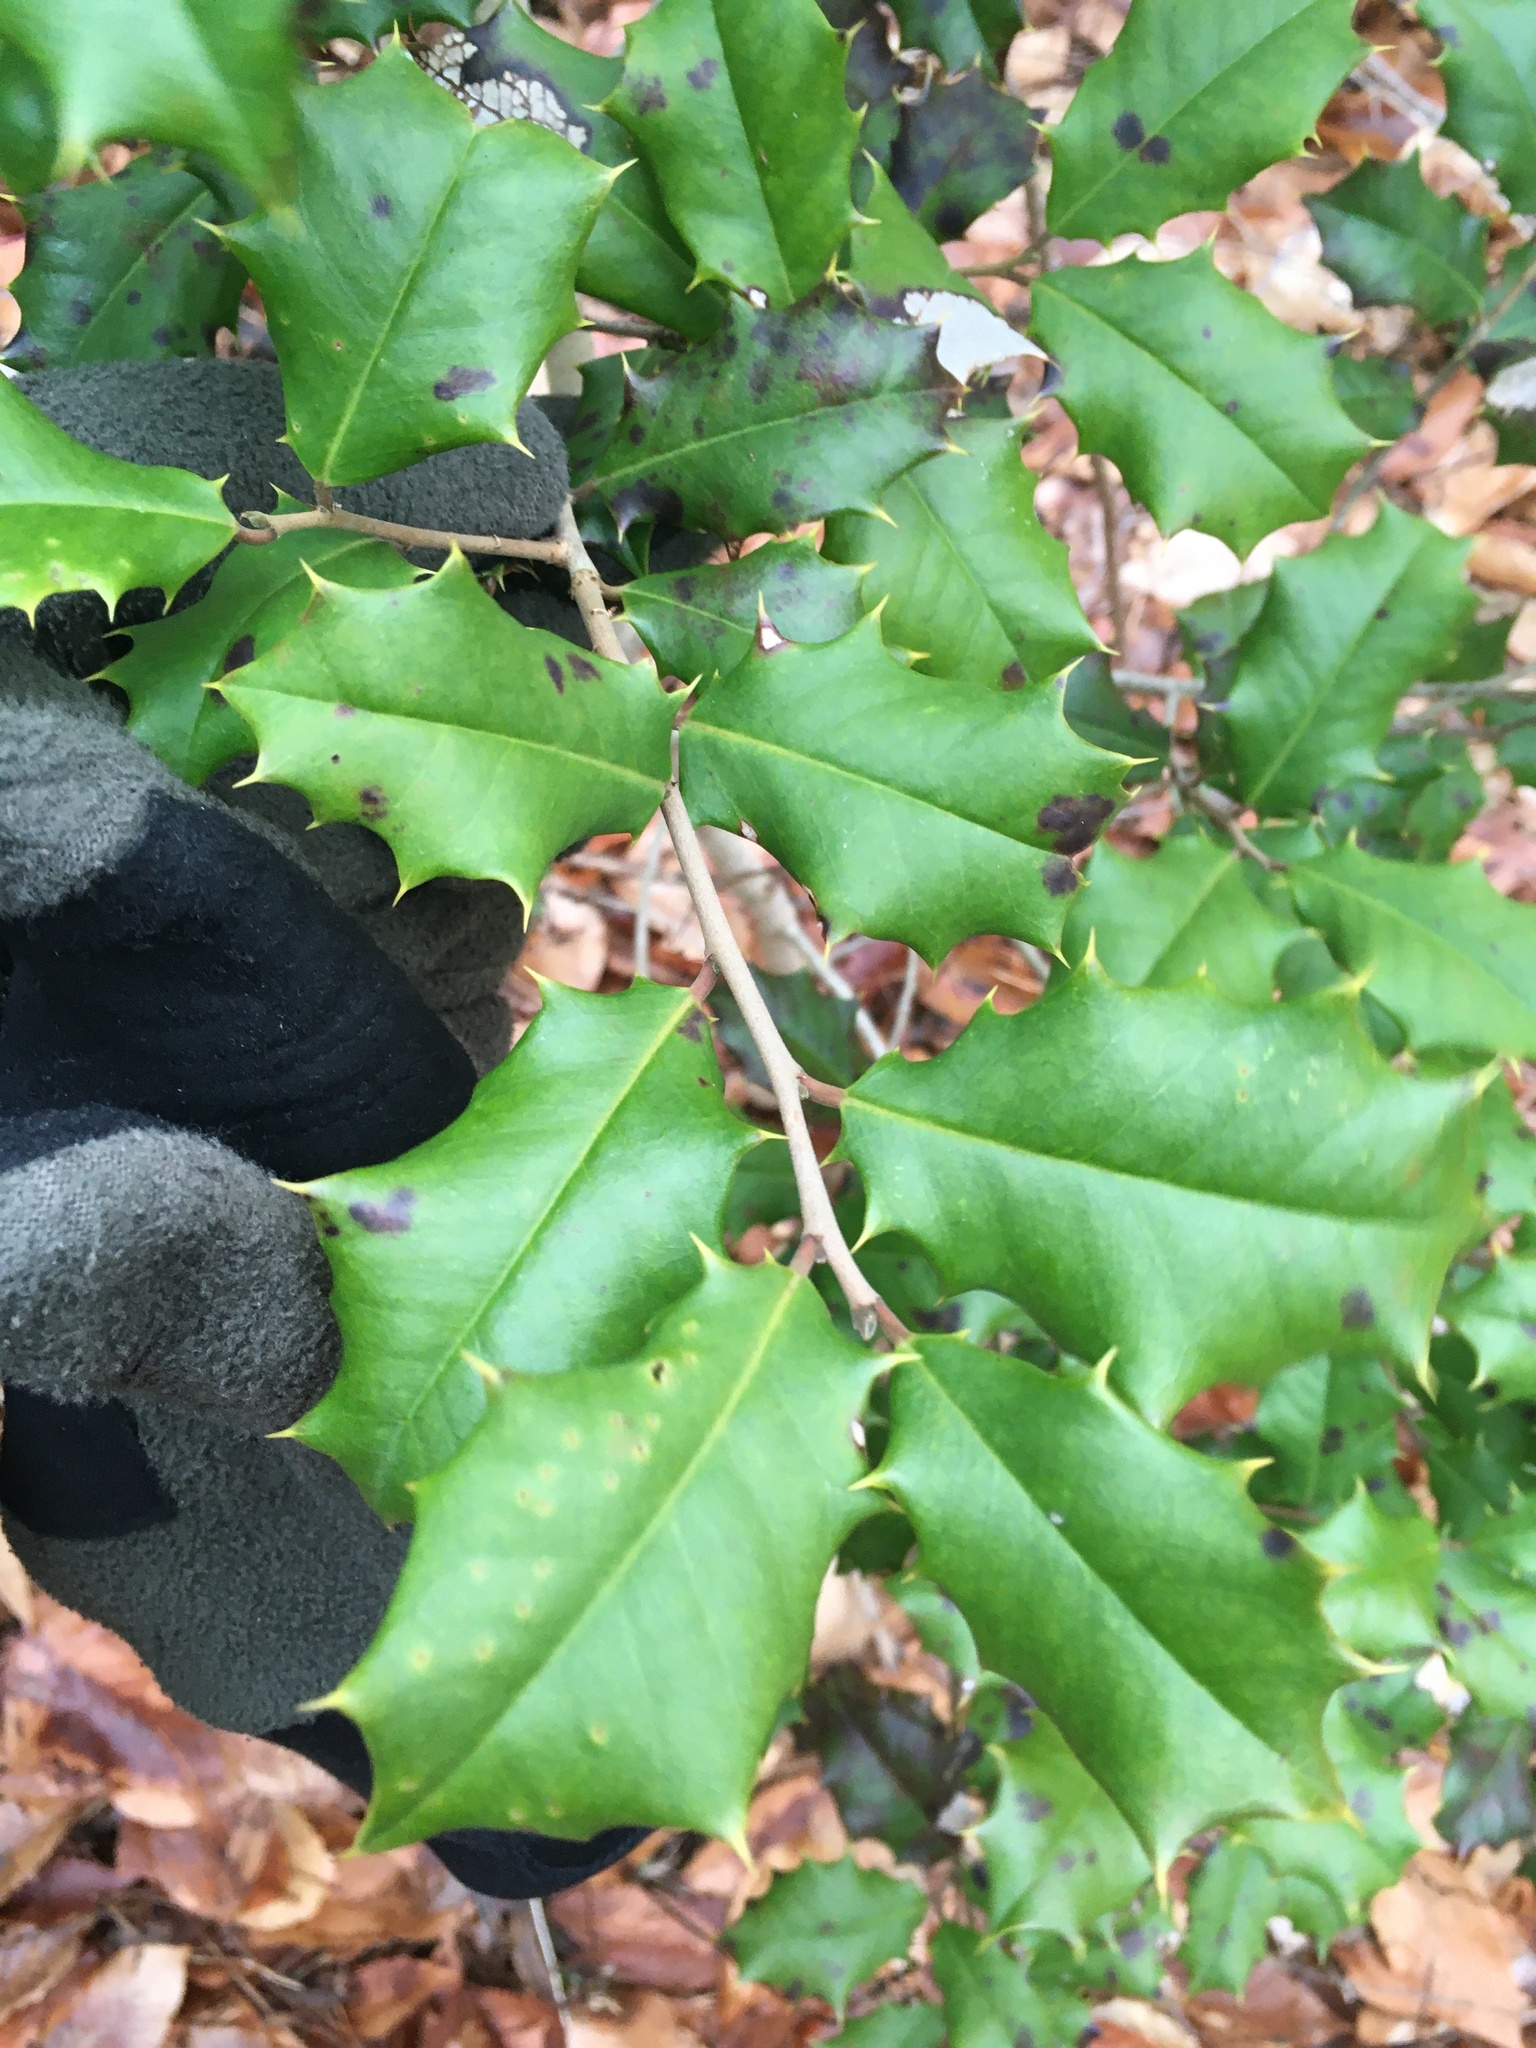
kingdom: Plantae
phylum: Tracheophyta
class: Magnoliopsida
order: Aquifoliales
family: Aquifoliaceae
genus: Ilex
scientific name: Ilex opaca
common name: American holly
